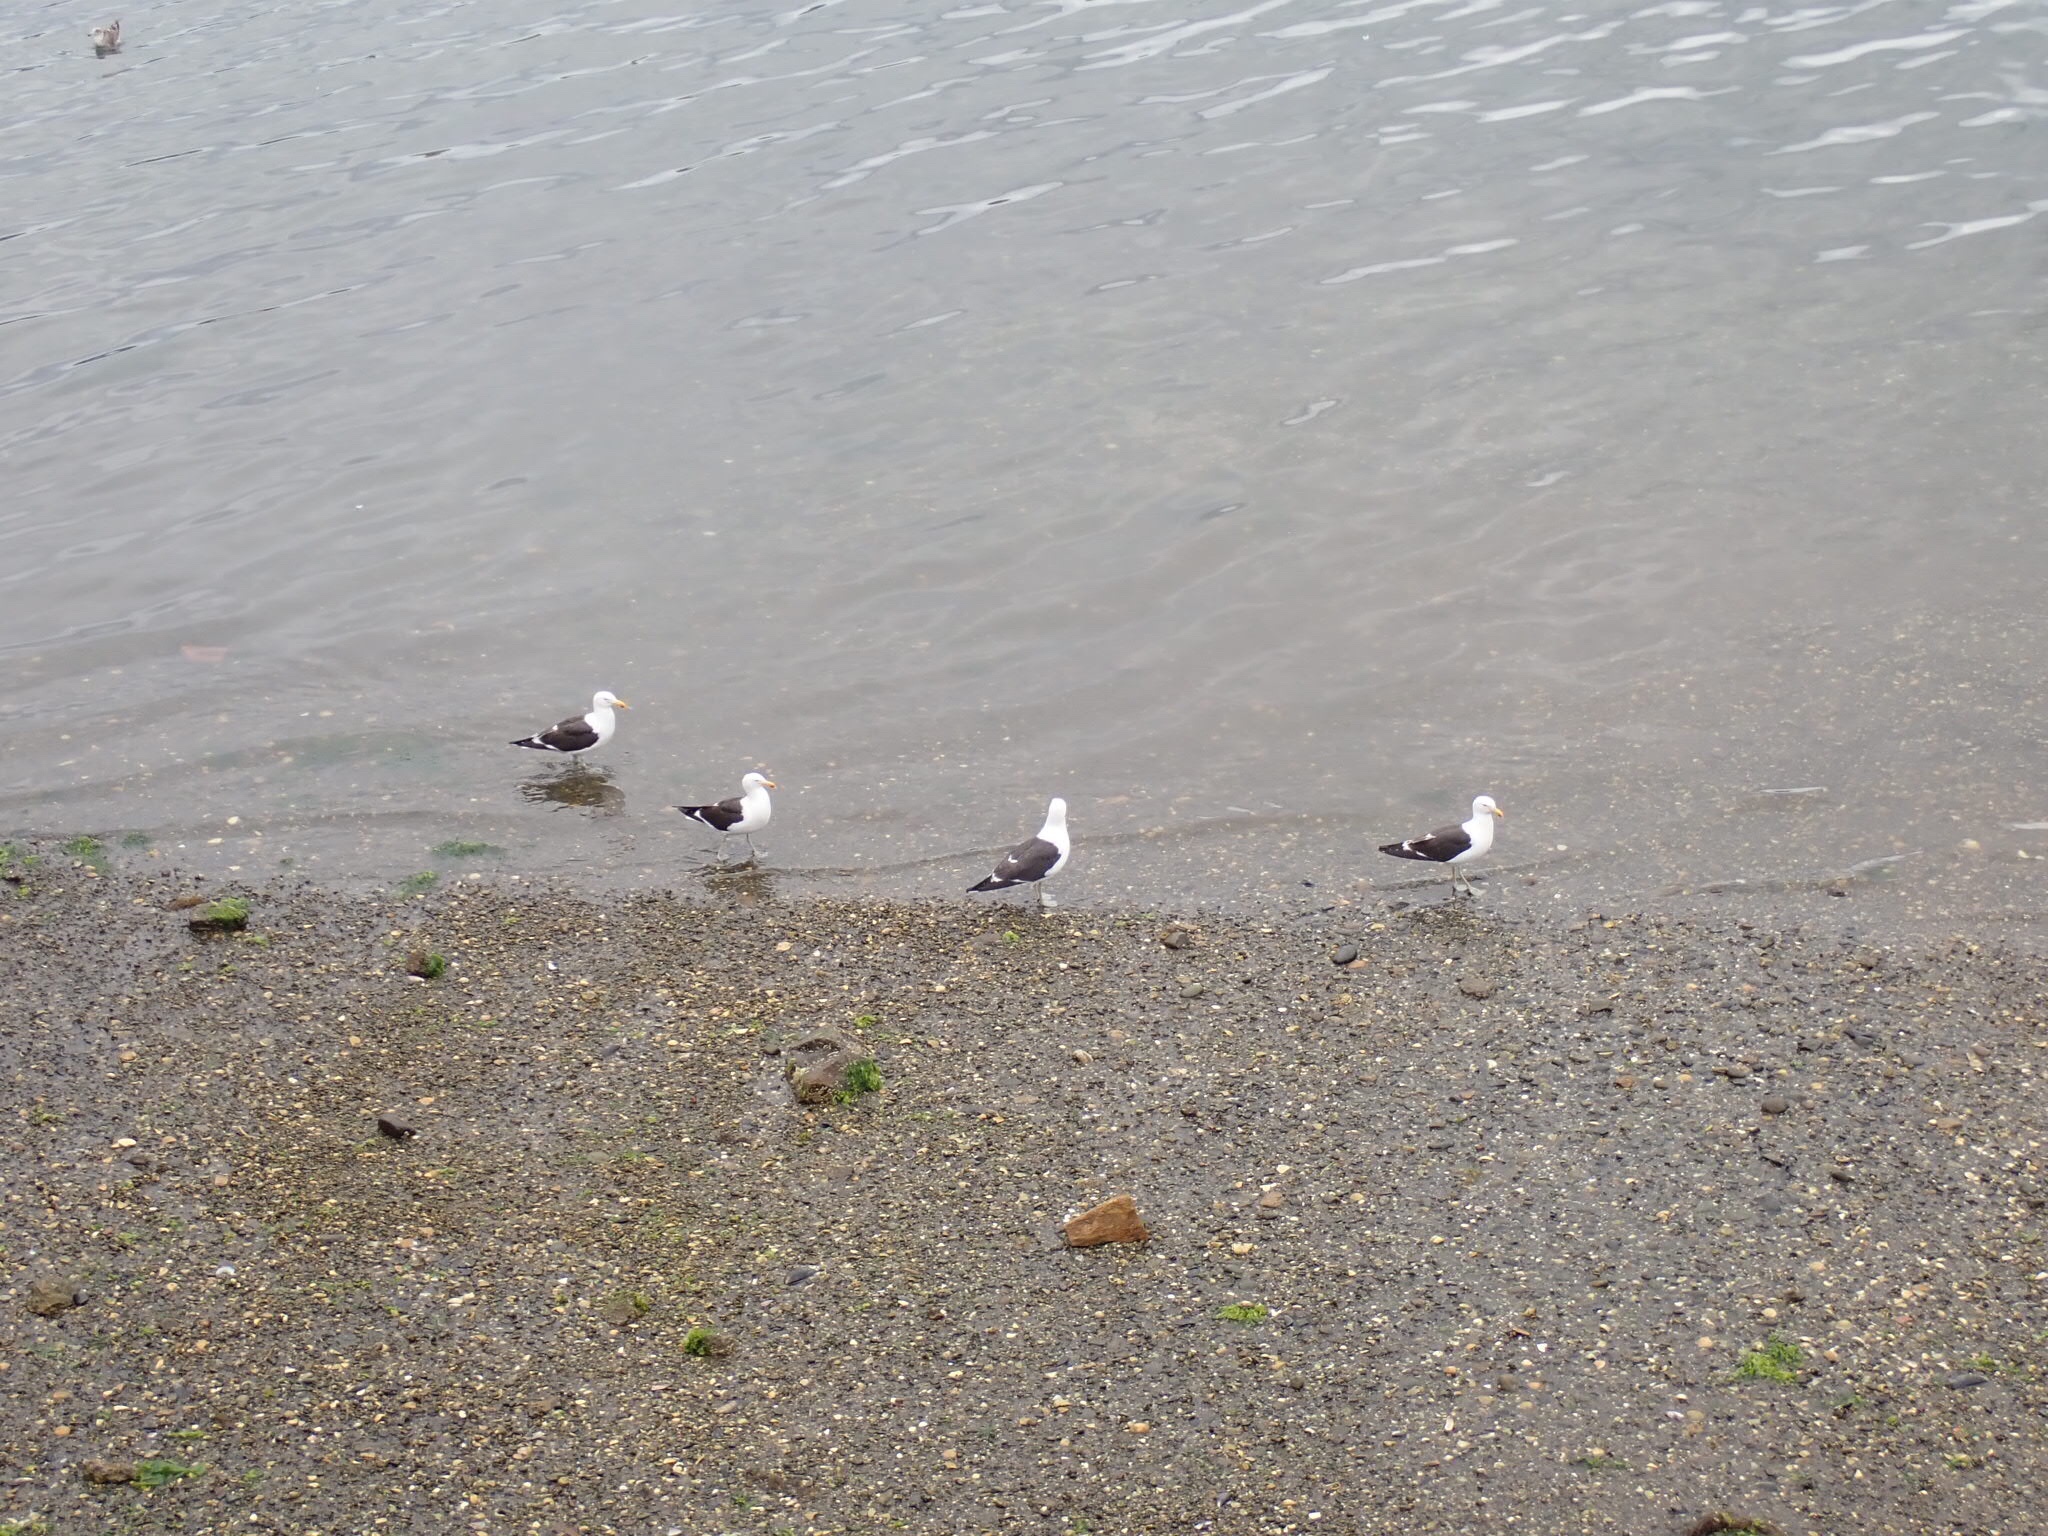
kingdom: Animalia
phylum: Chordata
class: Aves
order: Charadriiformes
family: Laridae
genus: Larus
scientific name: Larus dominicanus
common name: Kelp gull
